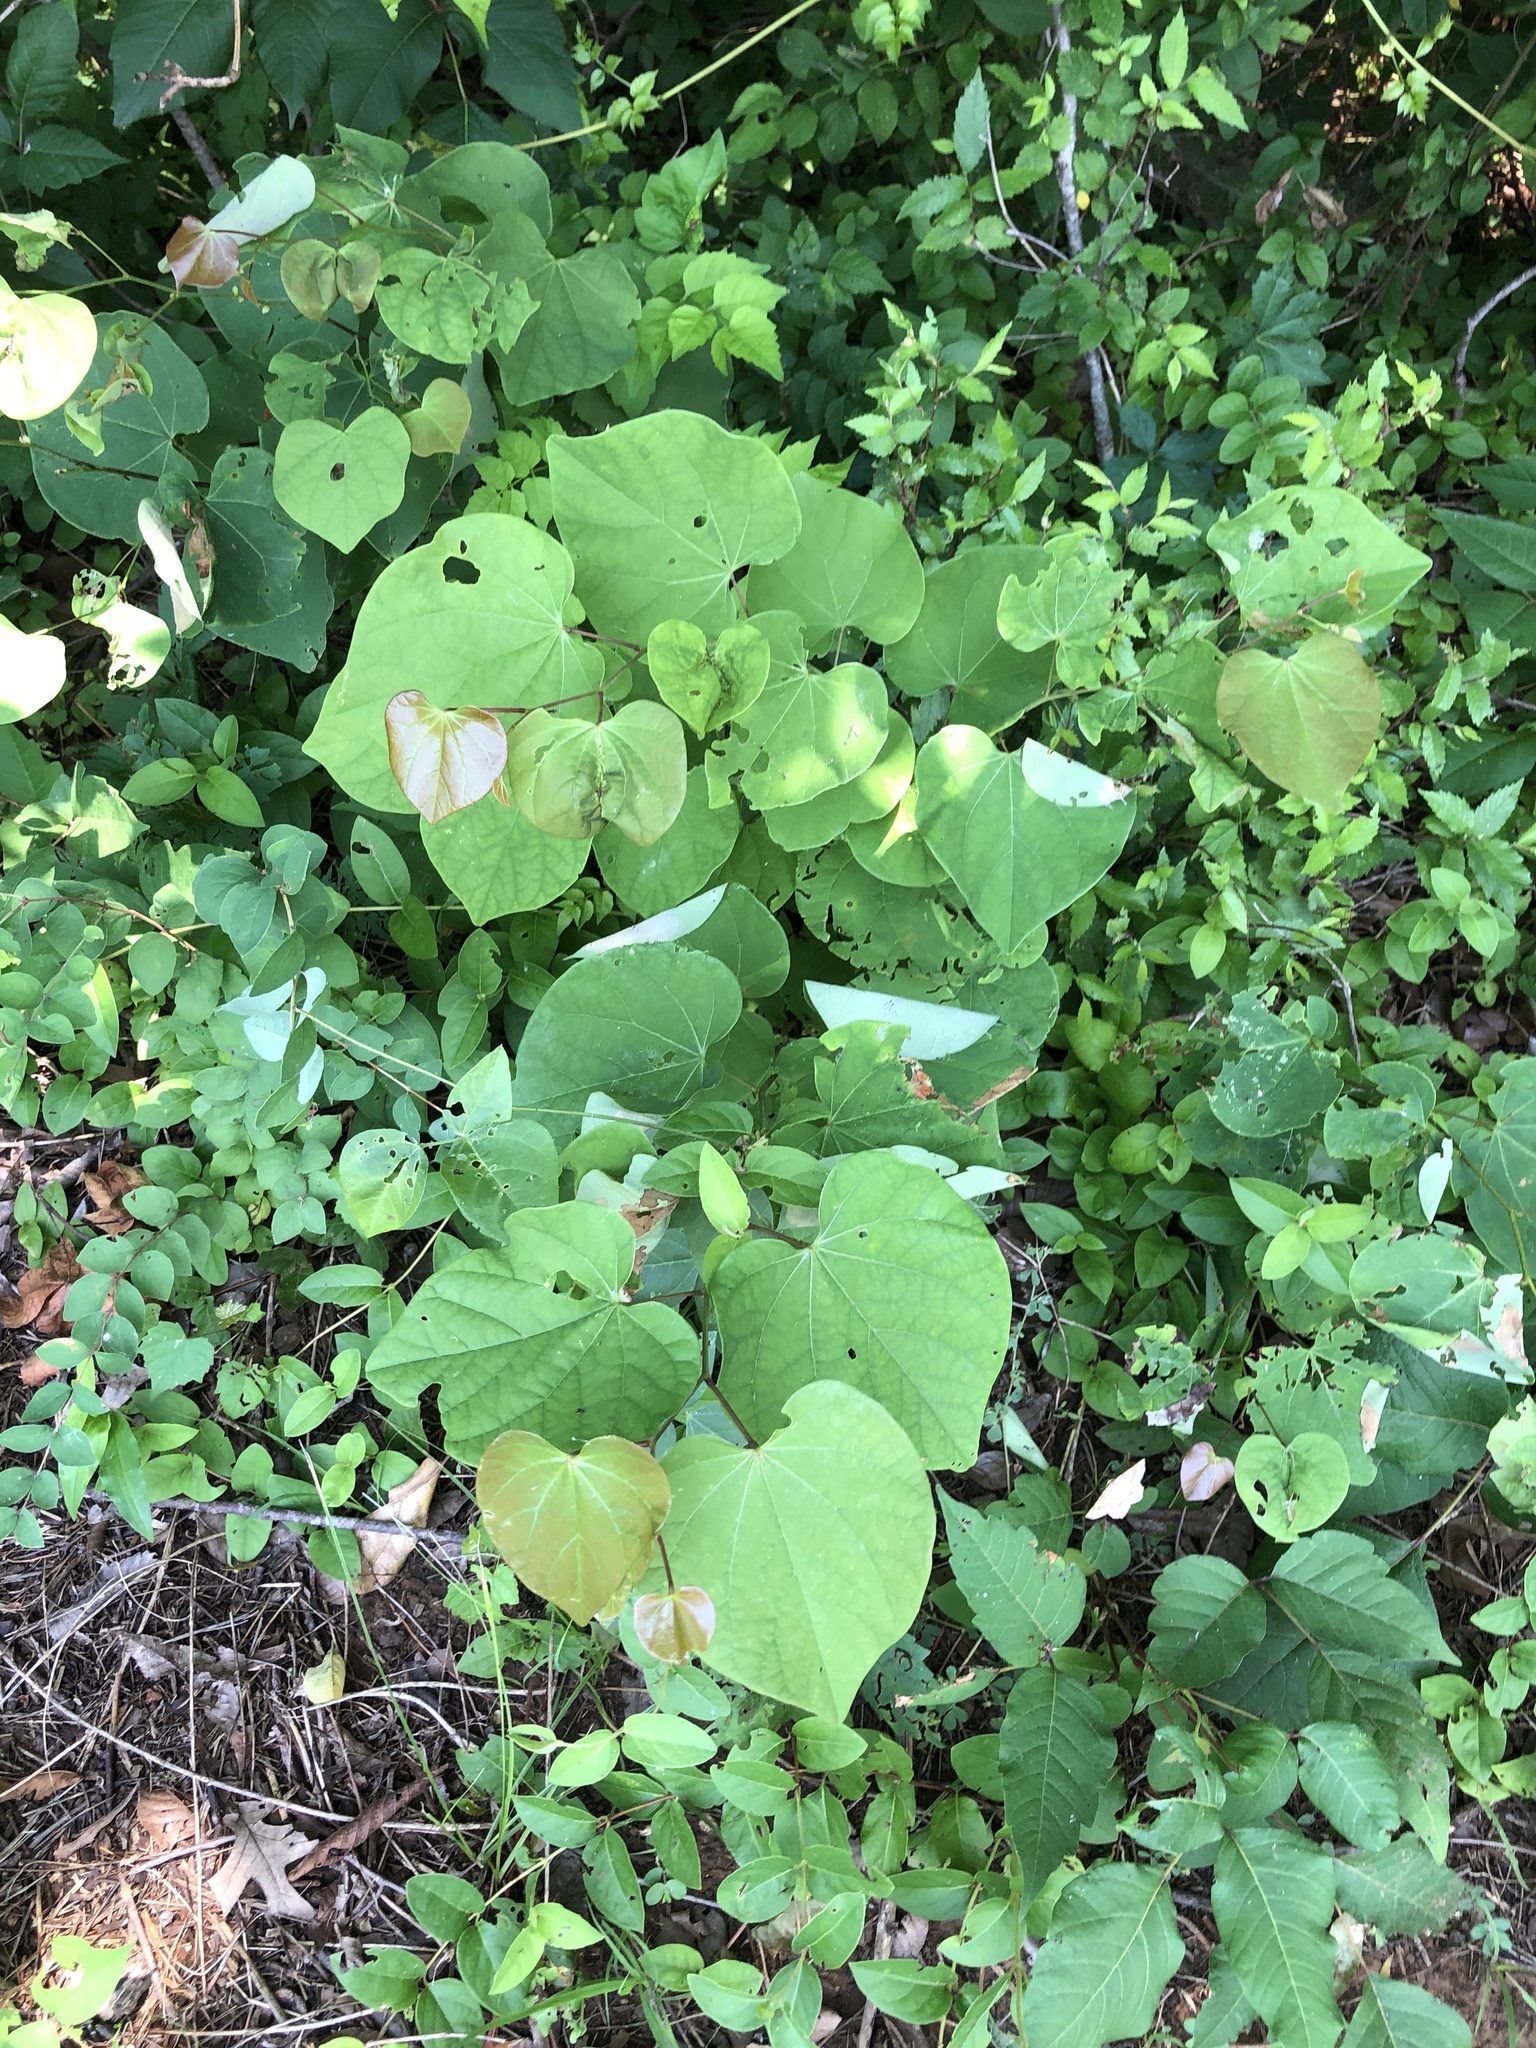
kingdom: Plantae
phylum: Tracheophyta
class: Magnoliopsida
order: Fabales
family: Fabaceae
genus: Cercis
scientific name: Cercis canadensis
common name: Eastern redbud
